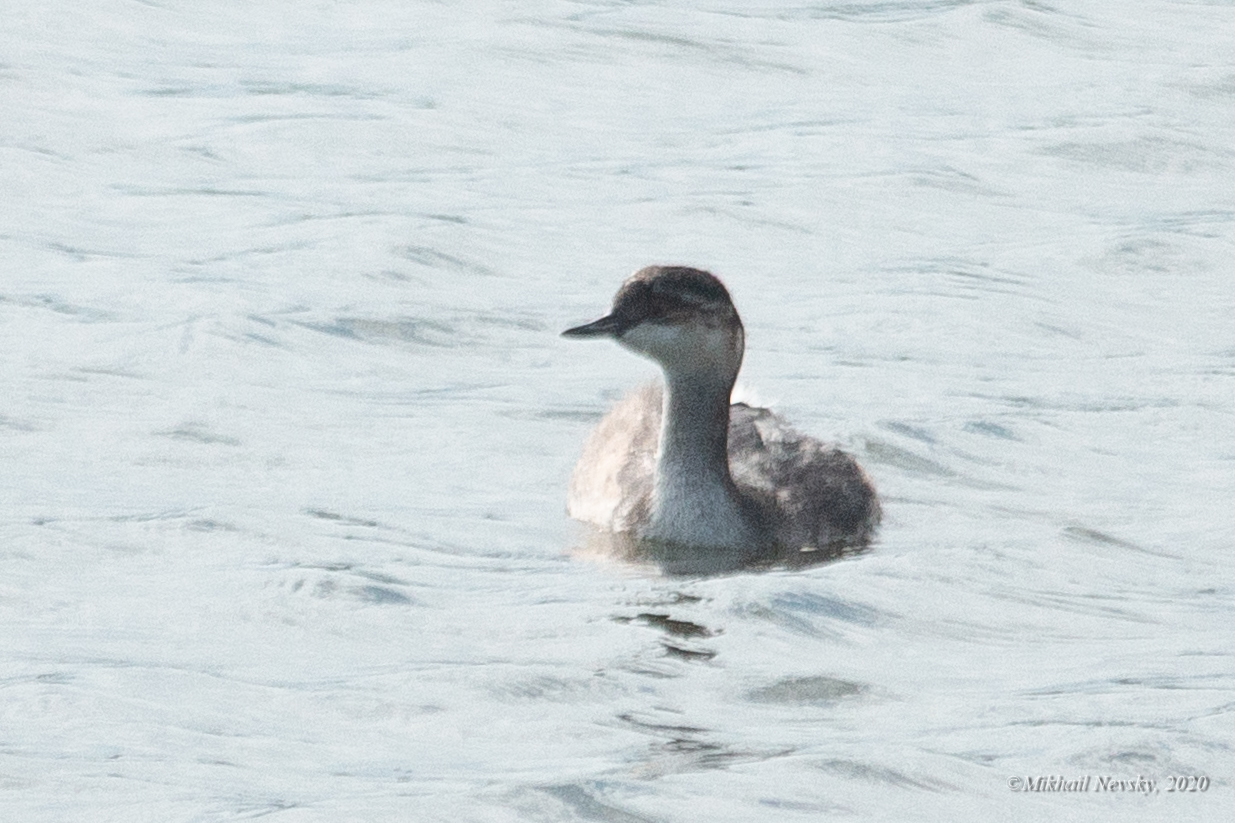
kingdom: Animalia
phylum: Chordata
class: Aves
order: Podicipediformes
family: Podicipedidae
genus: Podiceps
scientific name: Podiceps nigricollis
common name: Black-necked grebe
